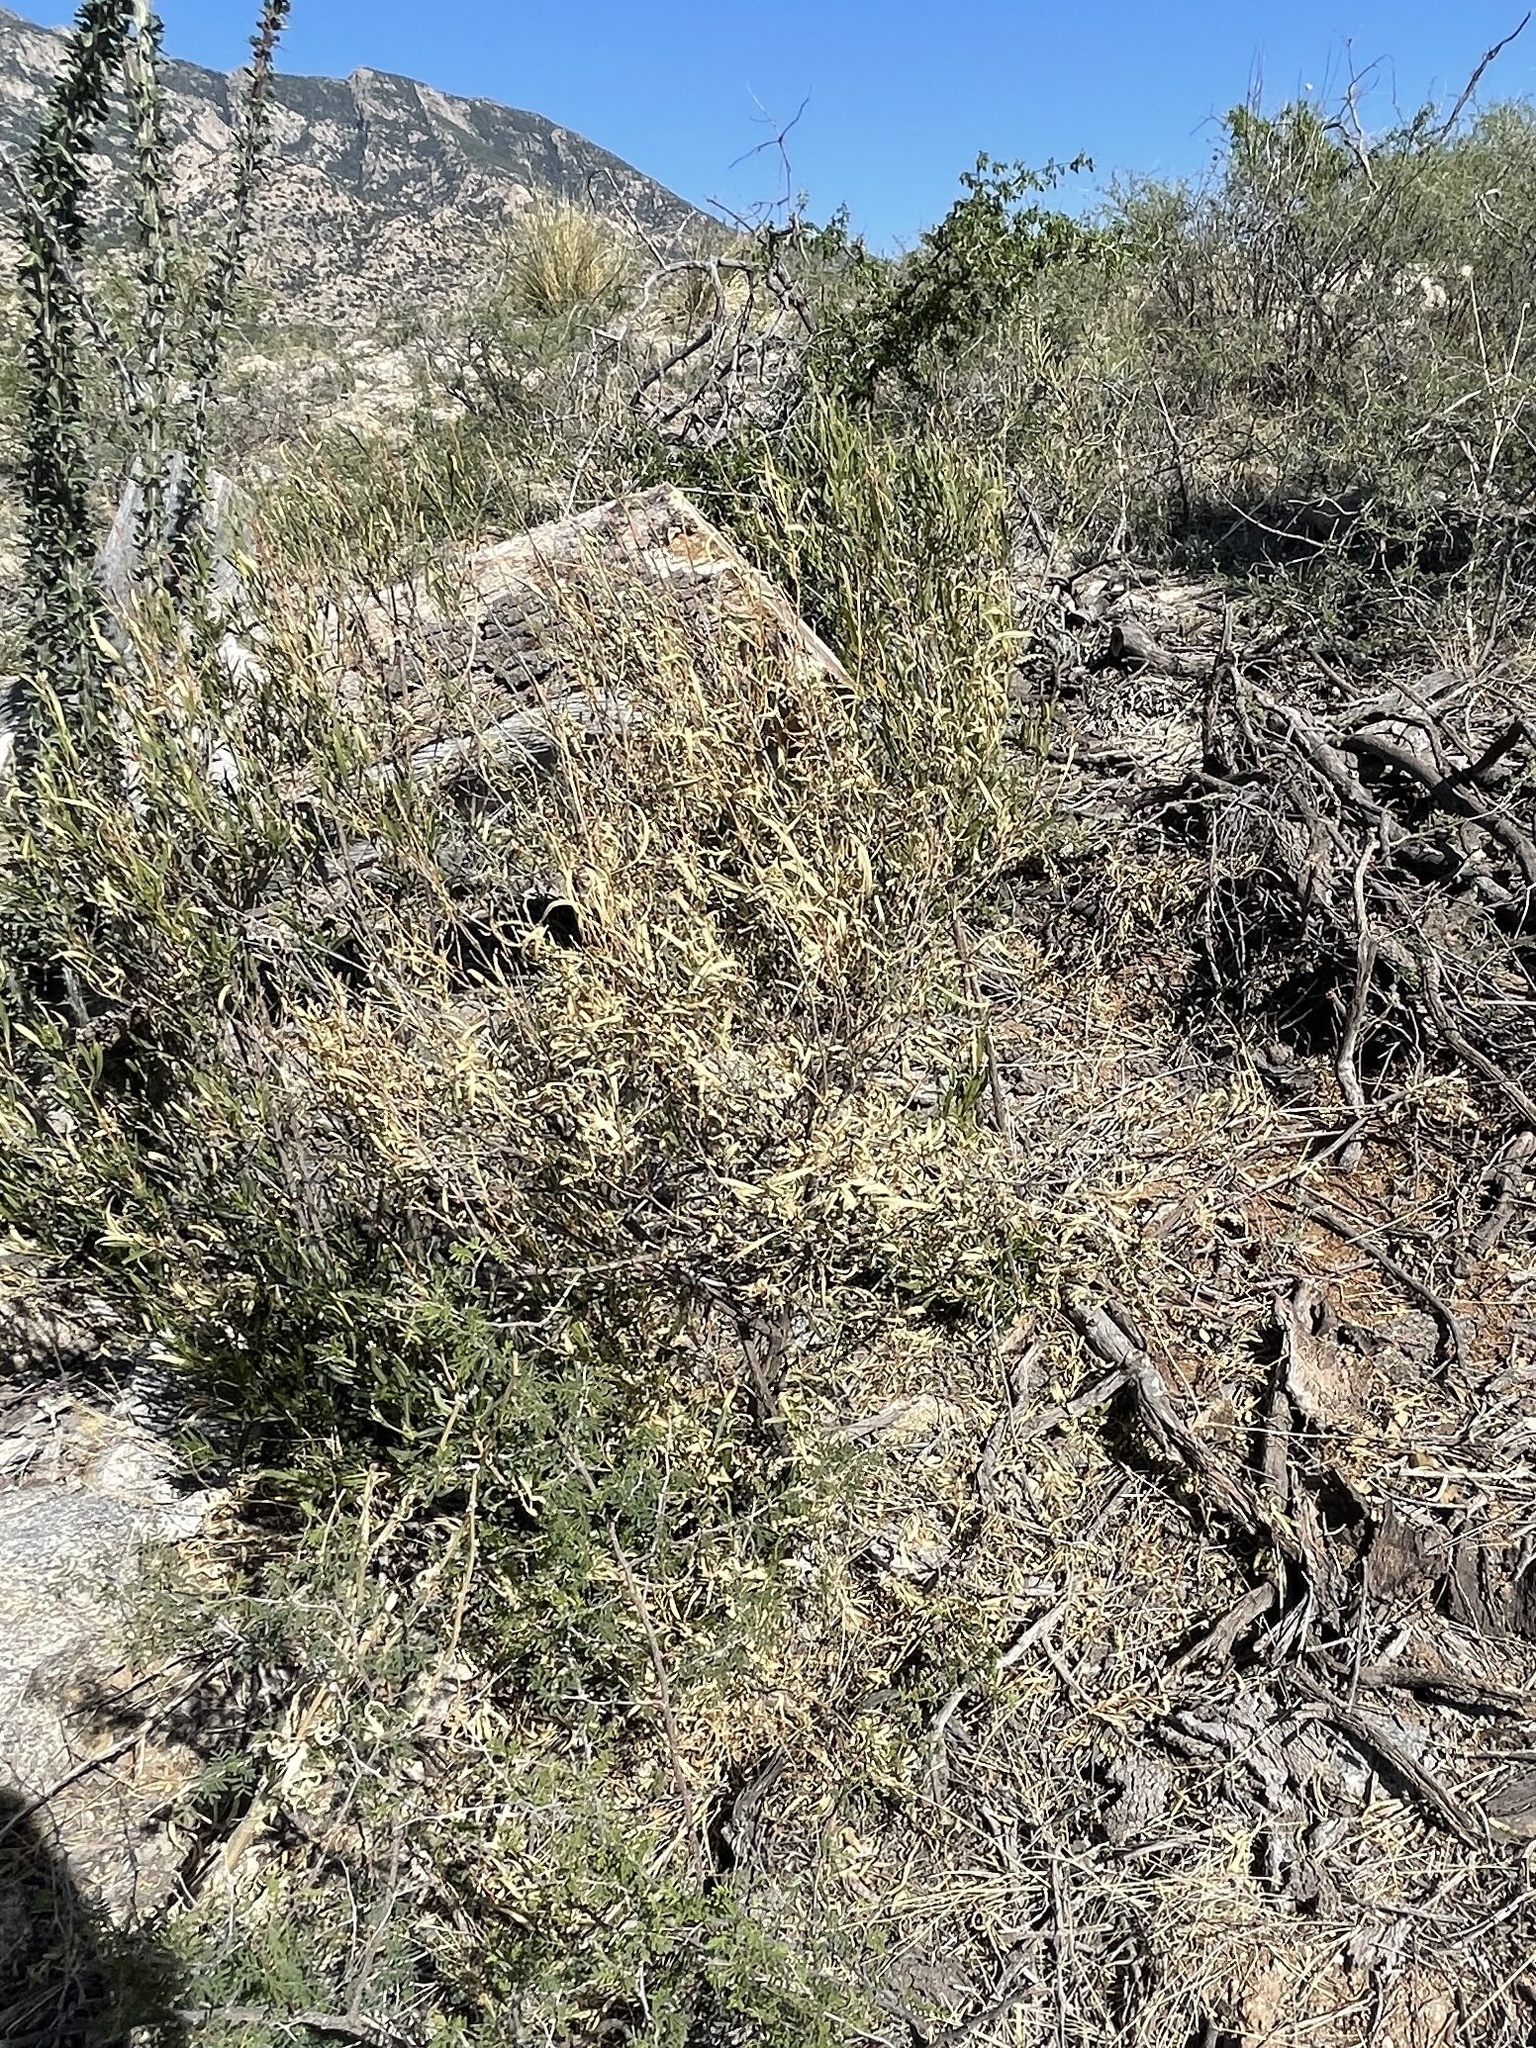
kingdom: Plantae
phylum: Tracheophyta
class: Magnoliopsida
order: Sapindales
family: Sapindaceae
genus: Dodonaea
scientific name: Dodonaea viscosa
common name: Hopbush
